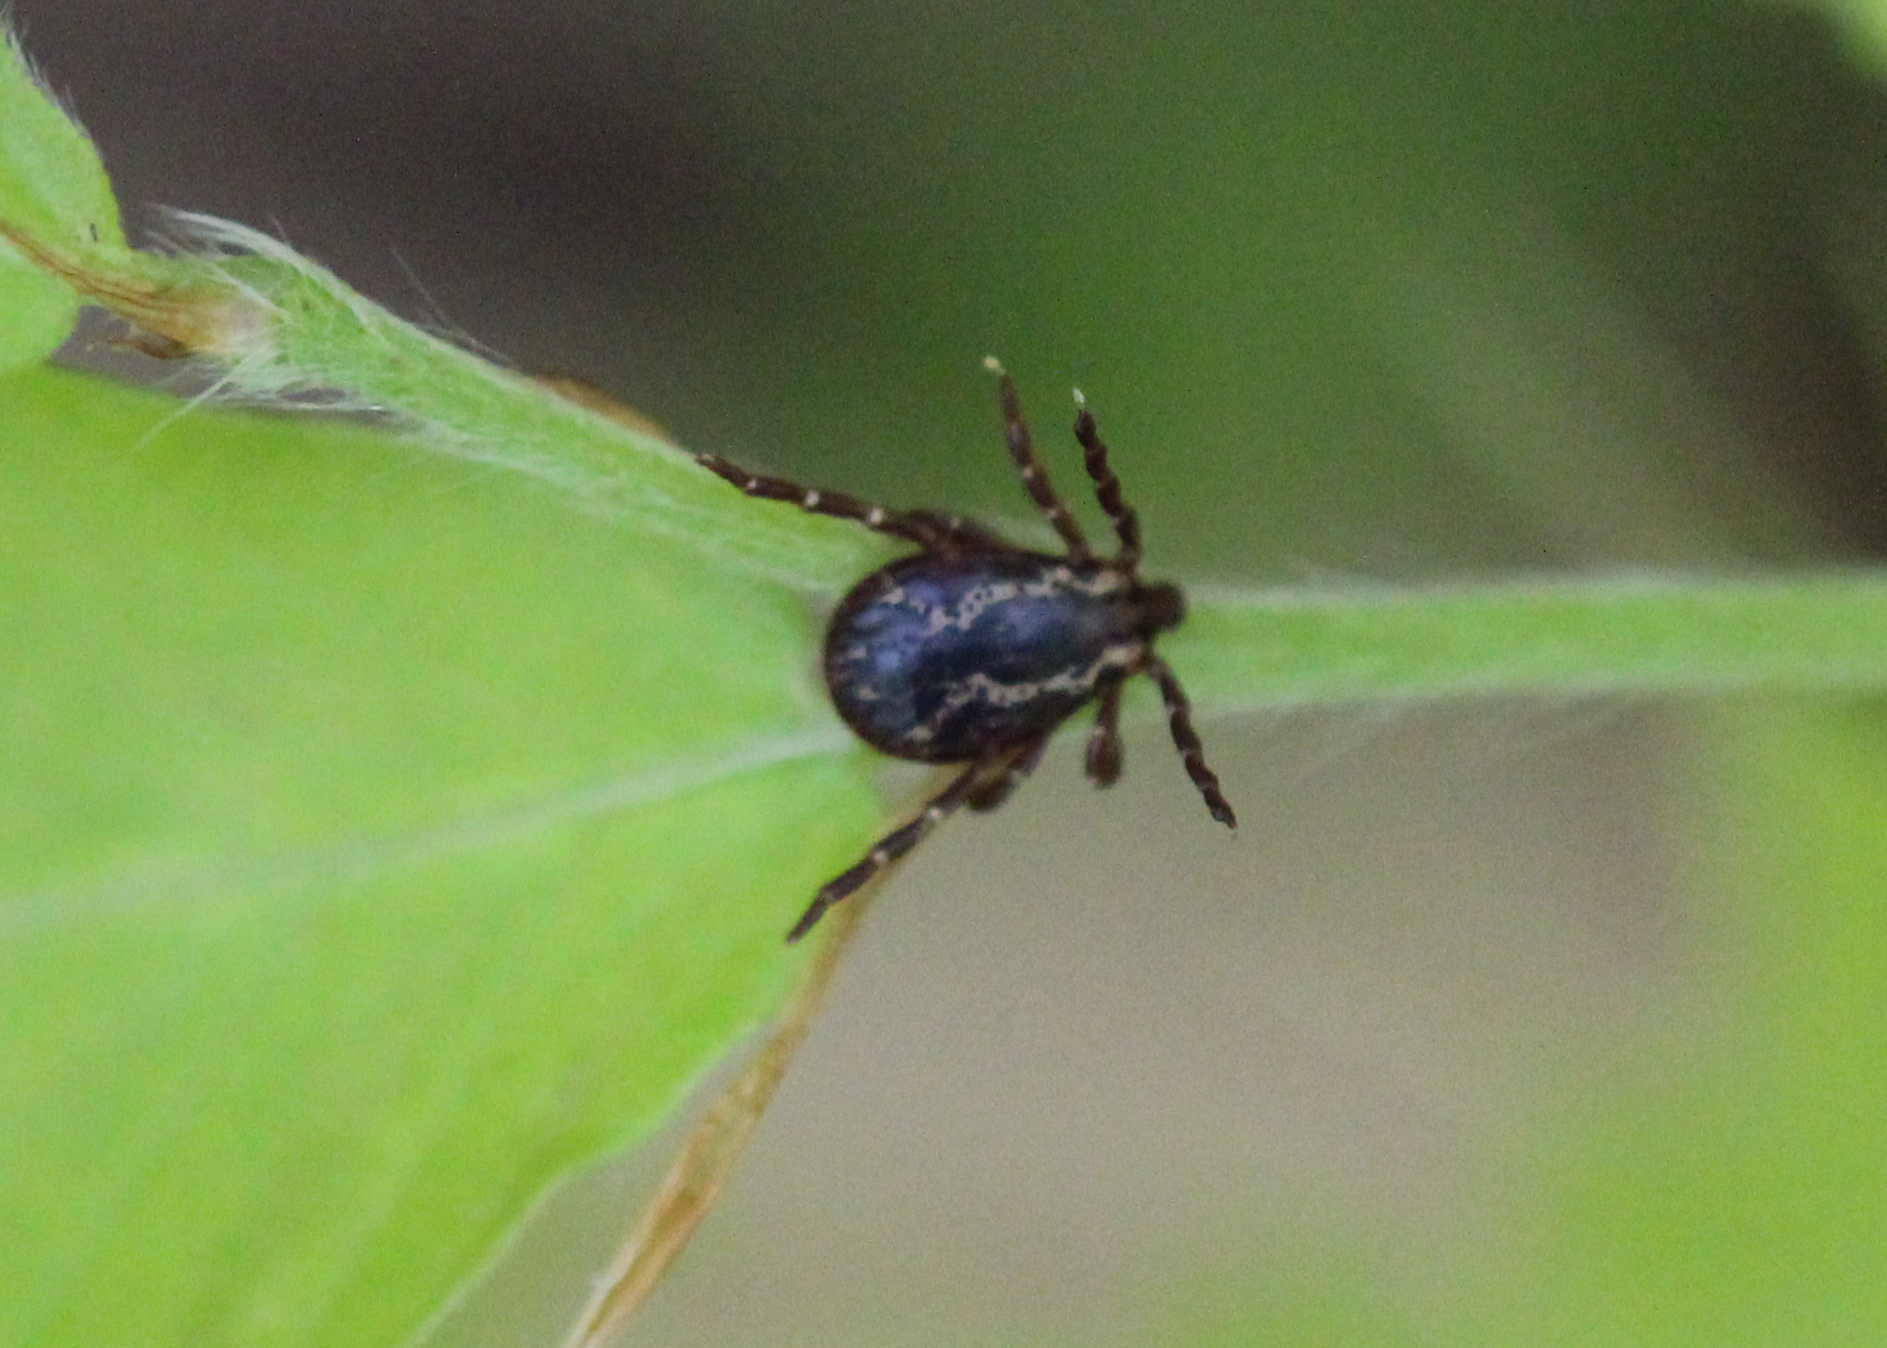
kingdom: Animalia
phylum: Arthropoda
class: Arachnida
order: Ixodida
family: Ixodidae
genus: Dermacentor
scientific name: Dermacentor variabilis
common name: American dog tick
